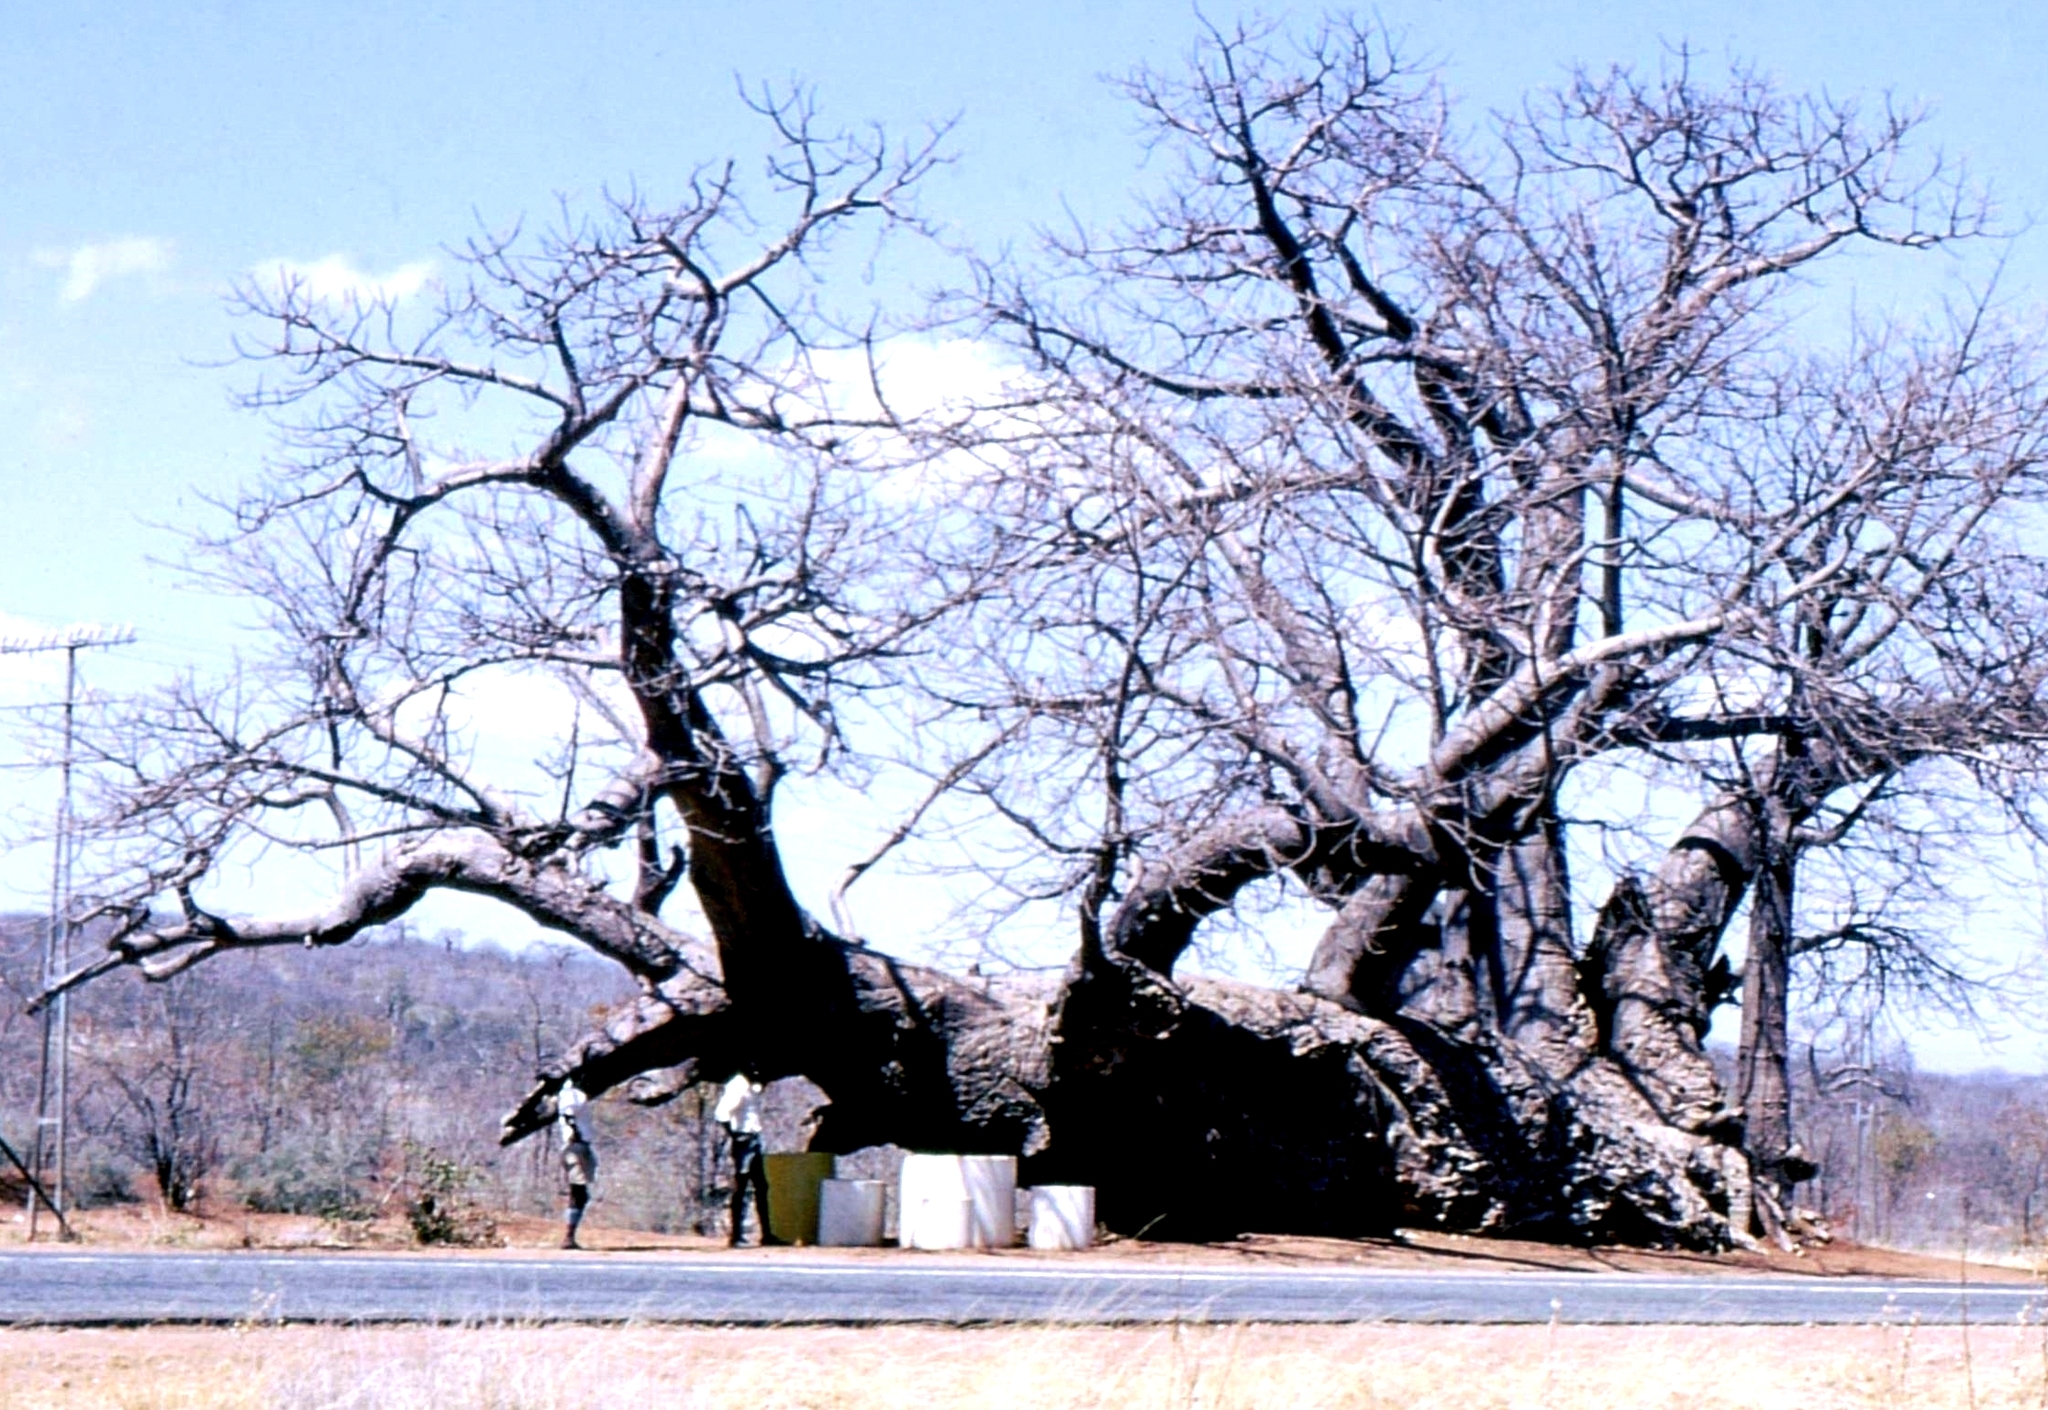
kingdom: Plantae
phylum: Tracheophyta
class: Magnoliopsida
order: Malvales
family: Malvaceae
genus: Adansonia
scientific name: Adansonia digitata
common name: Dead-rat-tree
